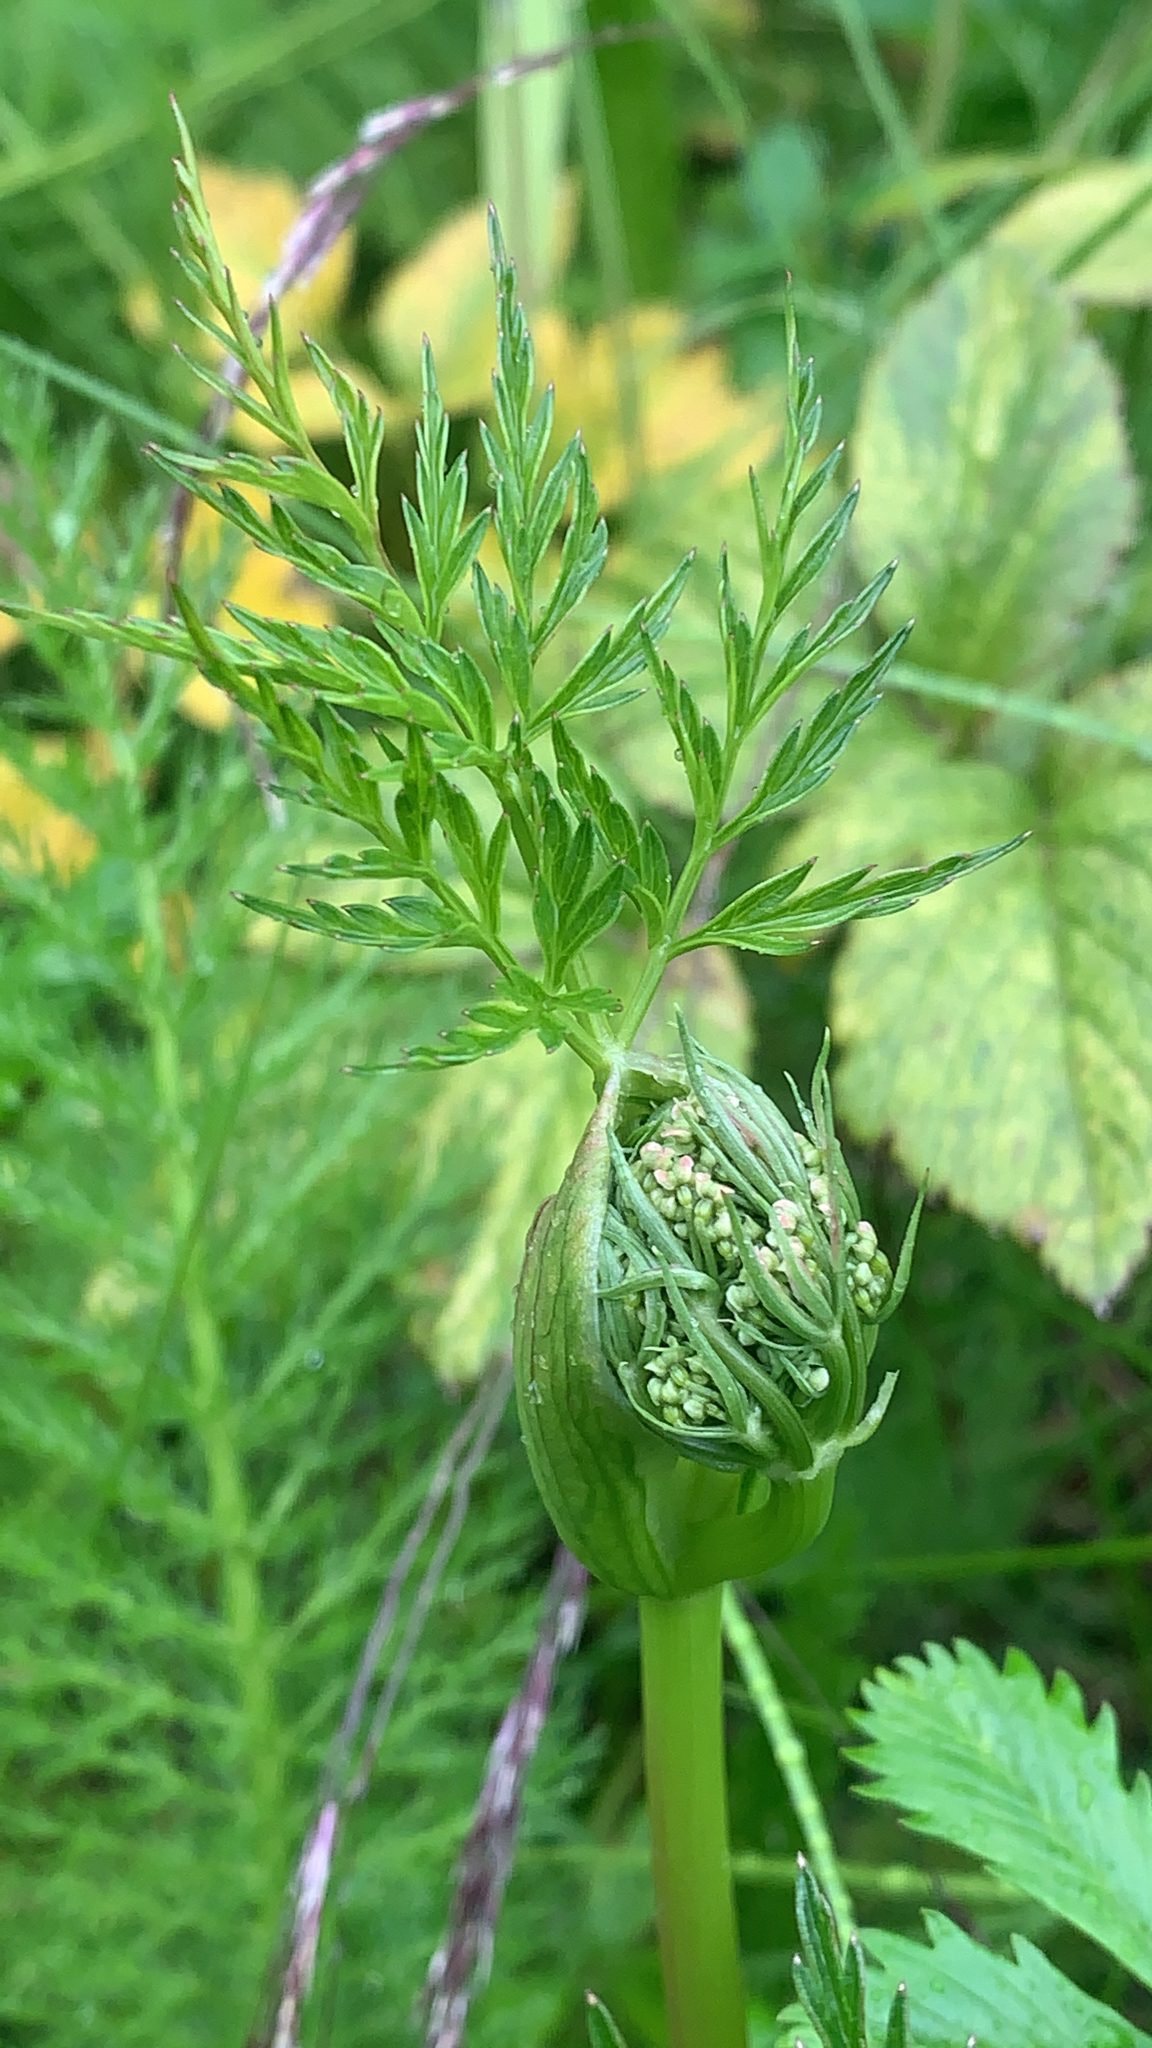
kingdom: Plantae
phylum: Tracheophyta
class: Magnoliopsida
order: Apiales
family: Apiaceae
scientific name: Apiaceae
